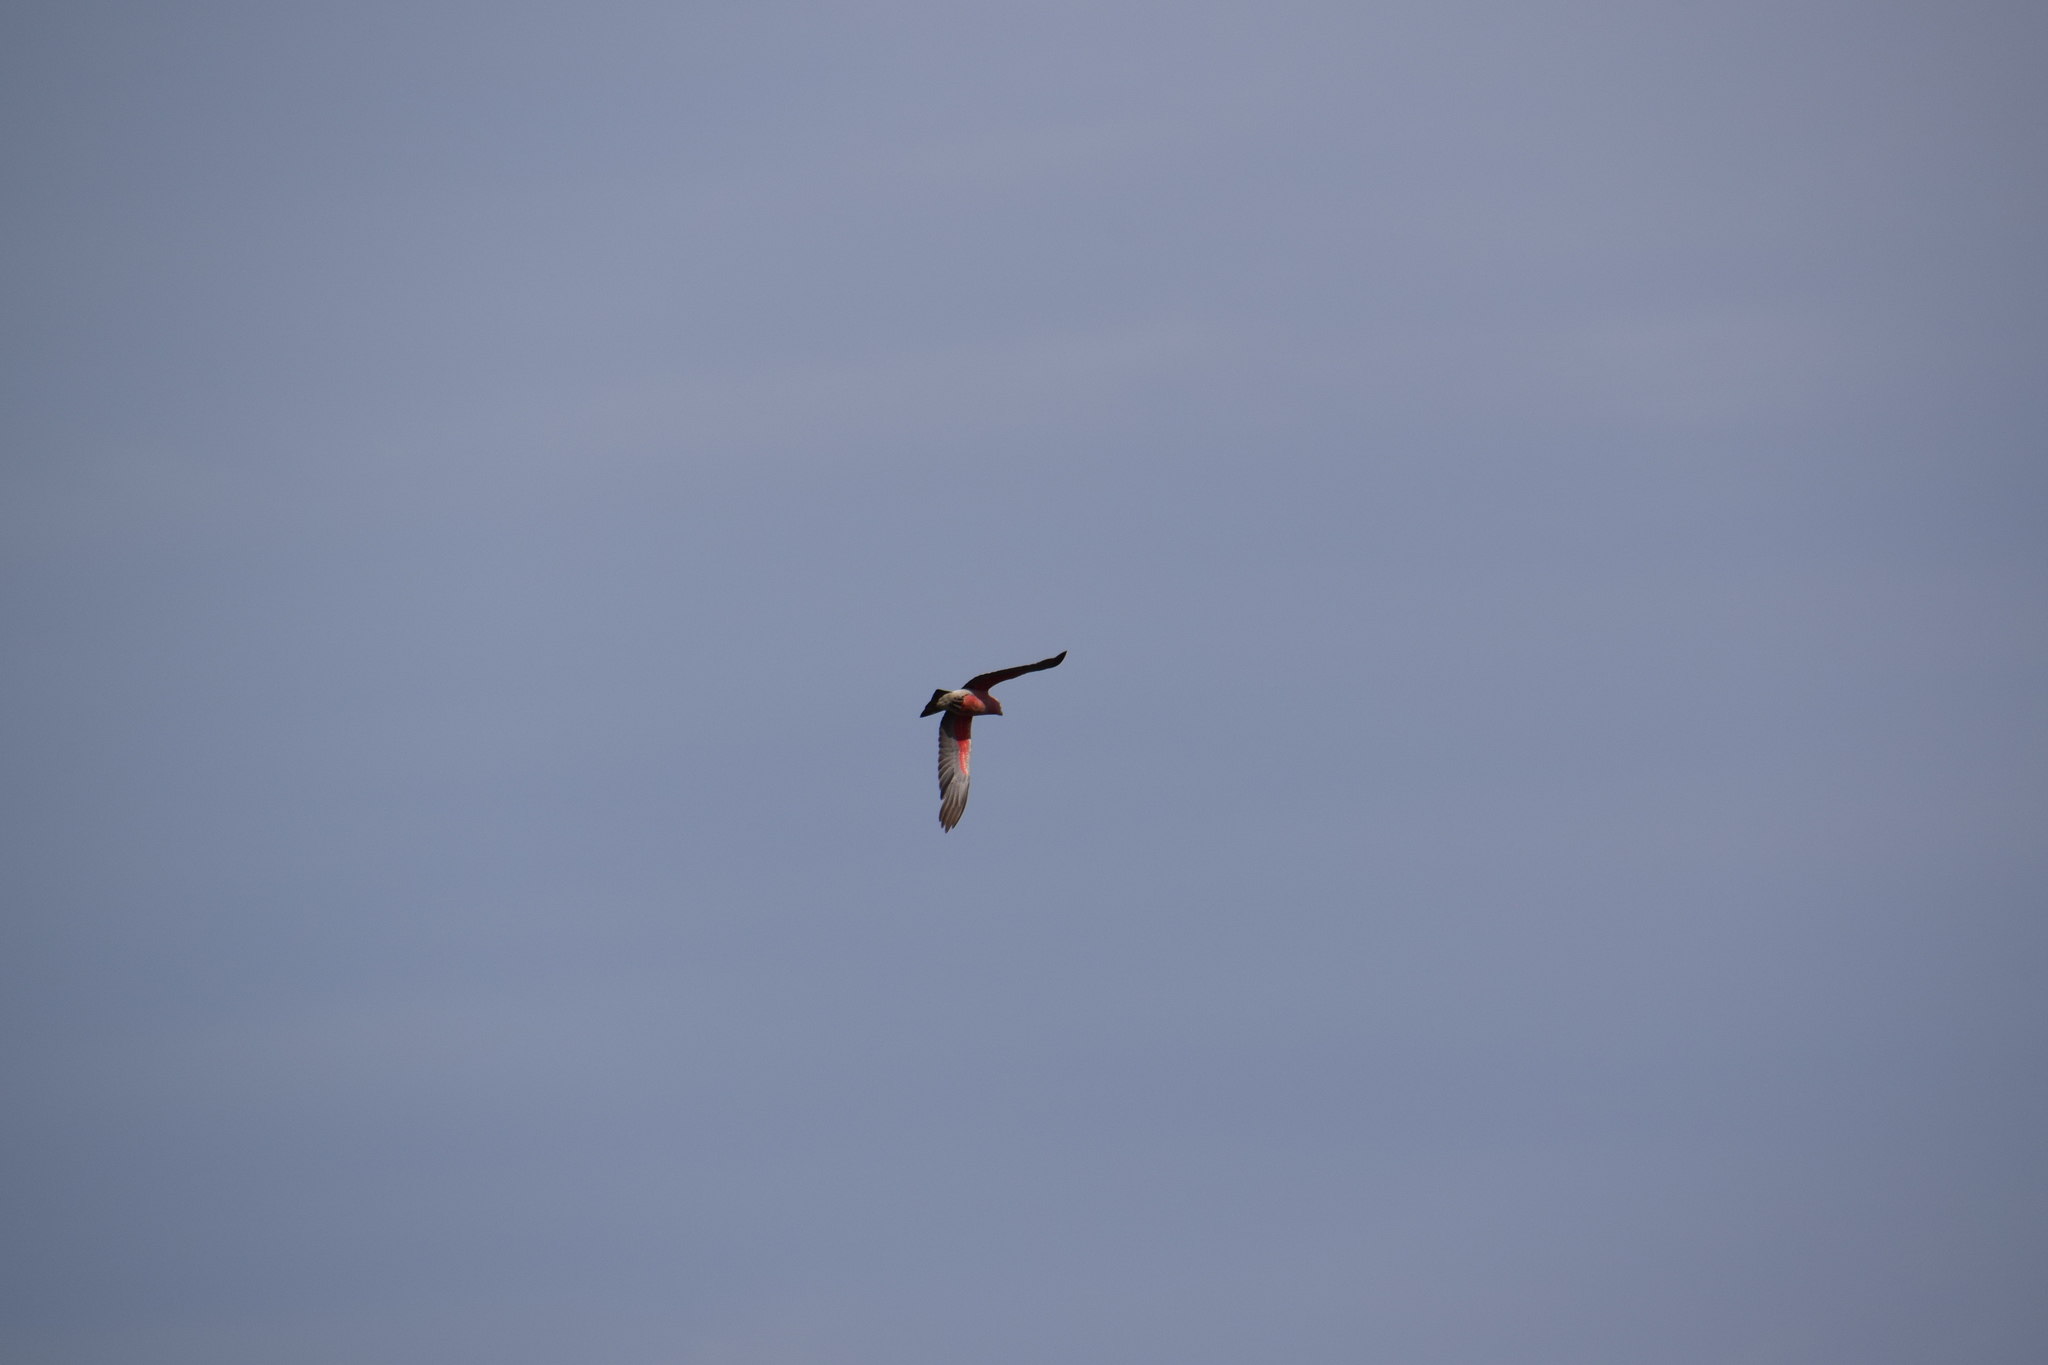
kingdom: Animalia
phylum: Chordata
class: Aves
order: Psittaciformes
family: Psittacidae
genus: Eolophus
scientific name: Eolophus roseicapilla
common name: Galah
